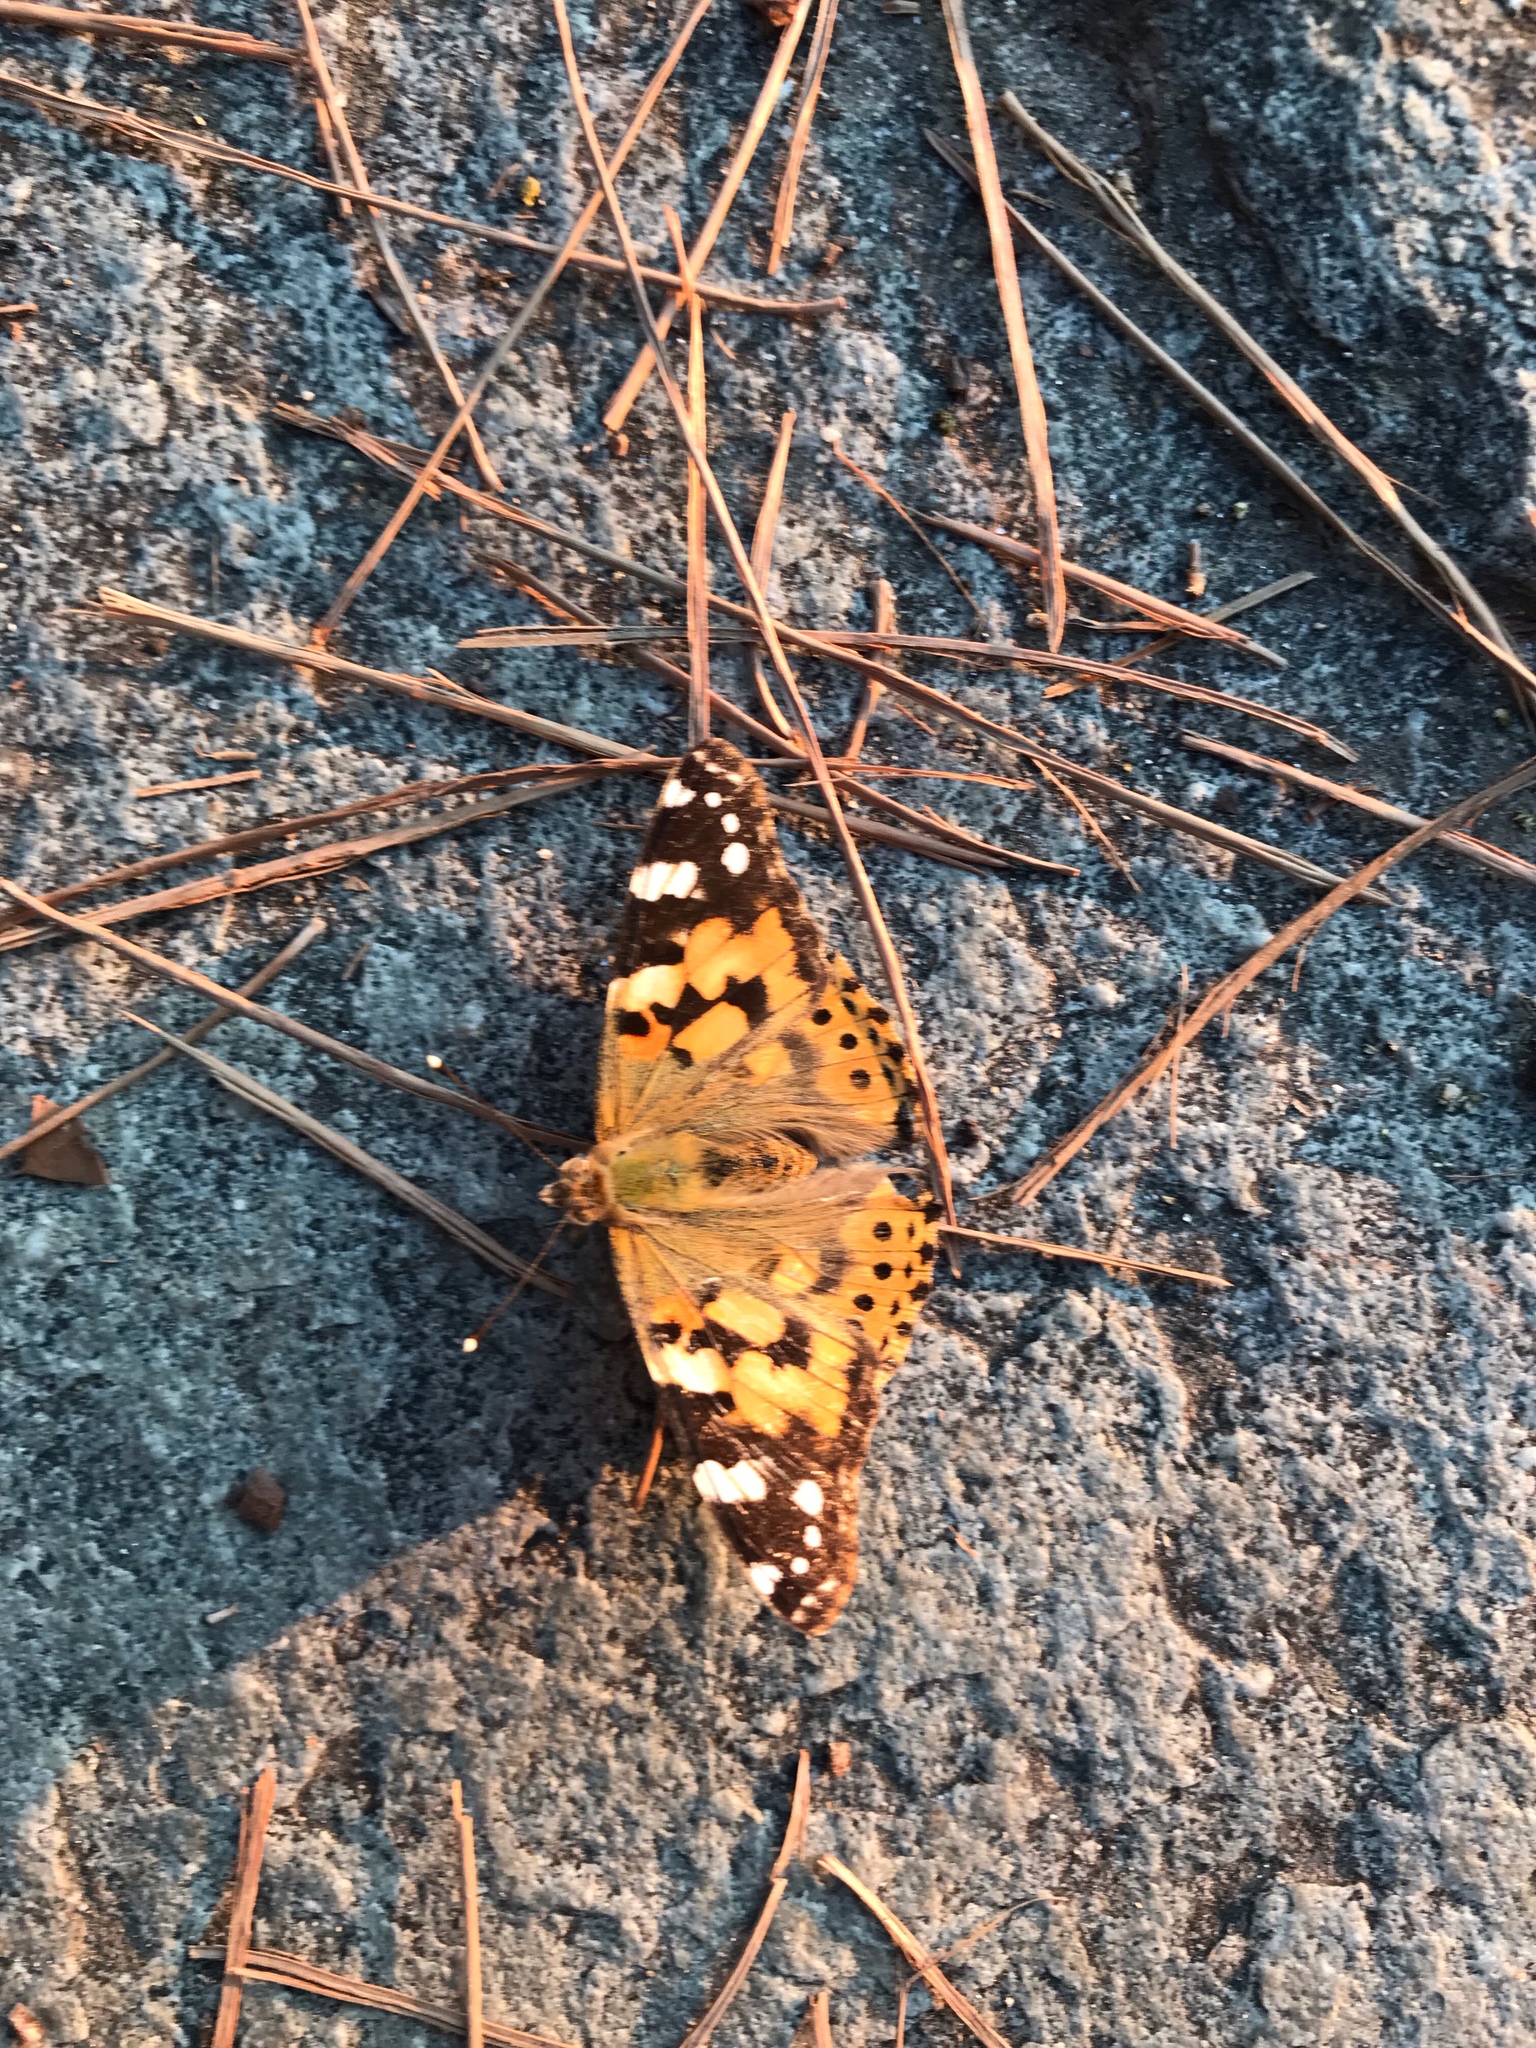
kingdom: Animalia
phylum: Arthropoda
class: Insecta
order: Lepidoptera
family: Nymphalidae
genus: Vanessa
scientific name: Vanessa cardui
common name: Painted lady
